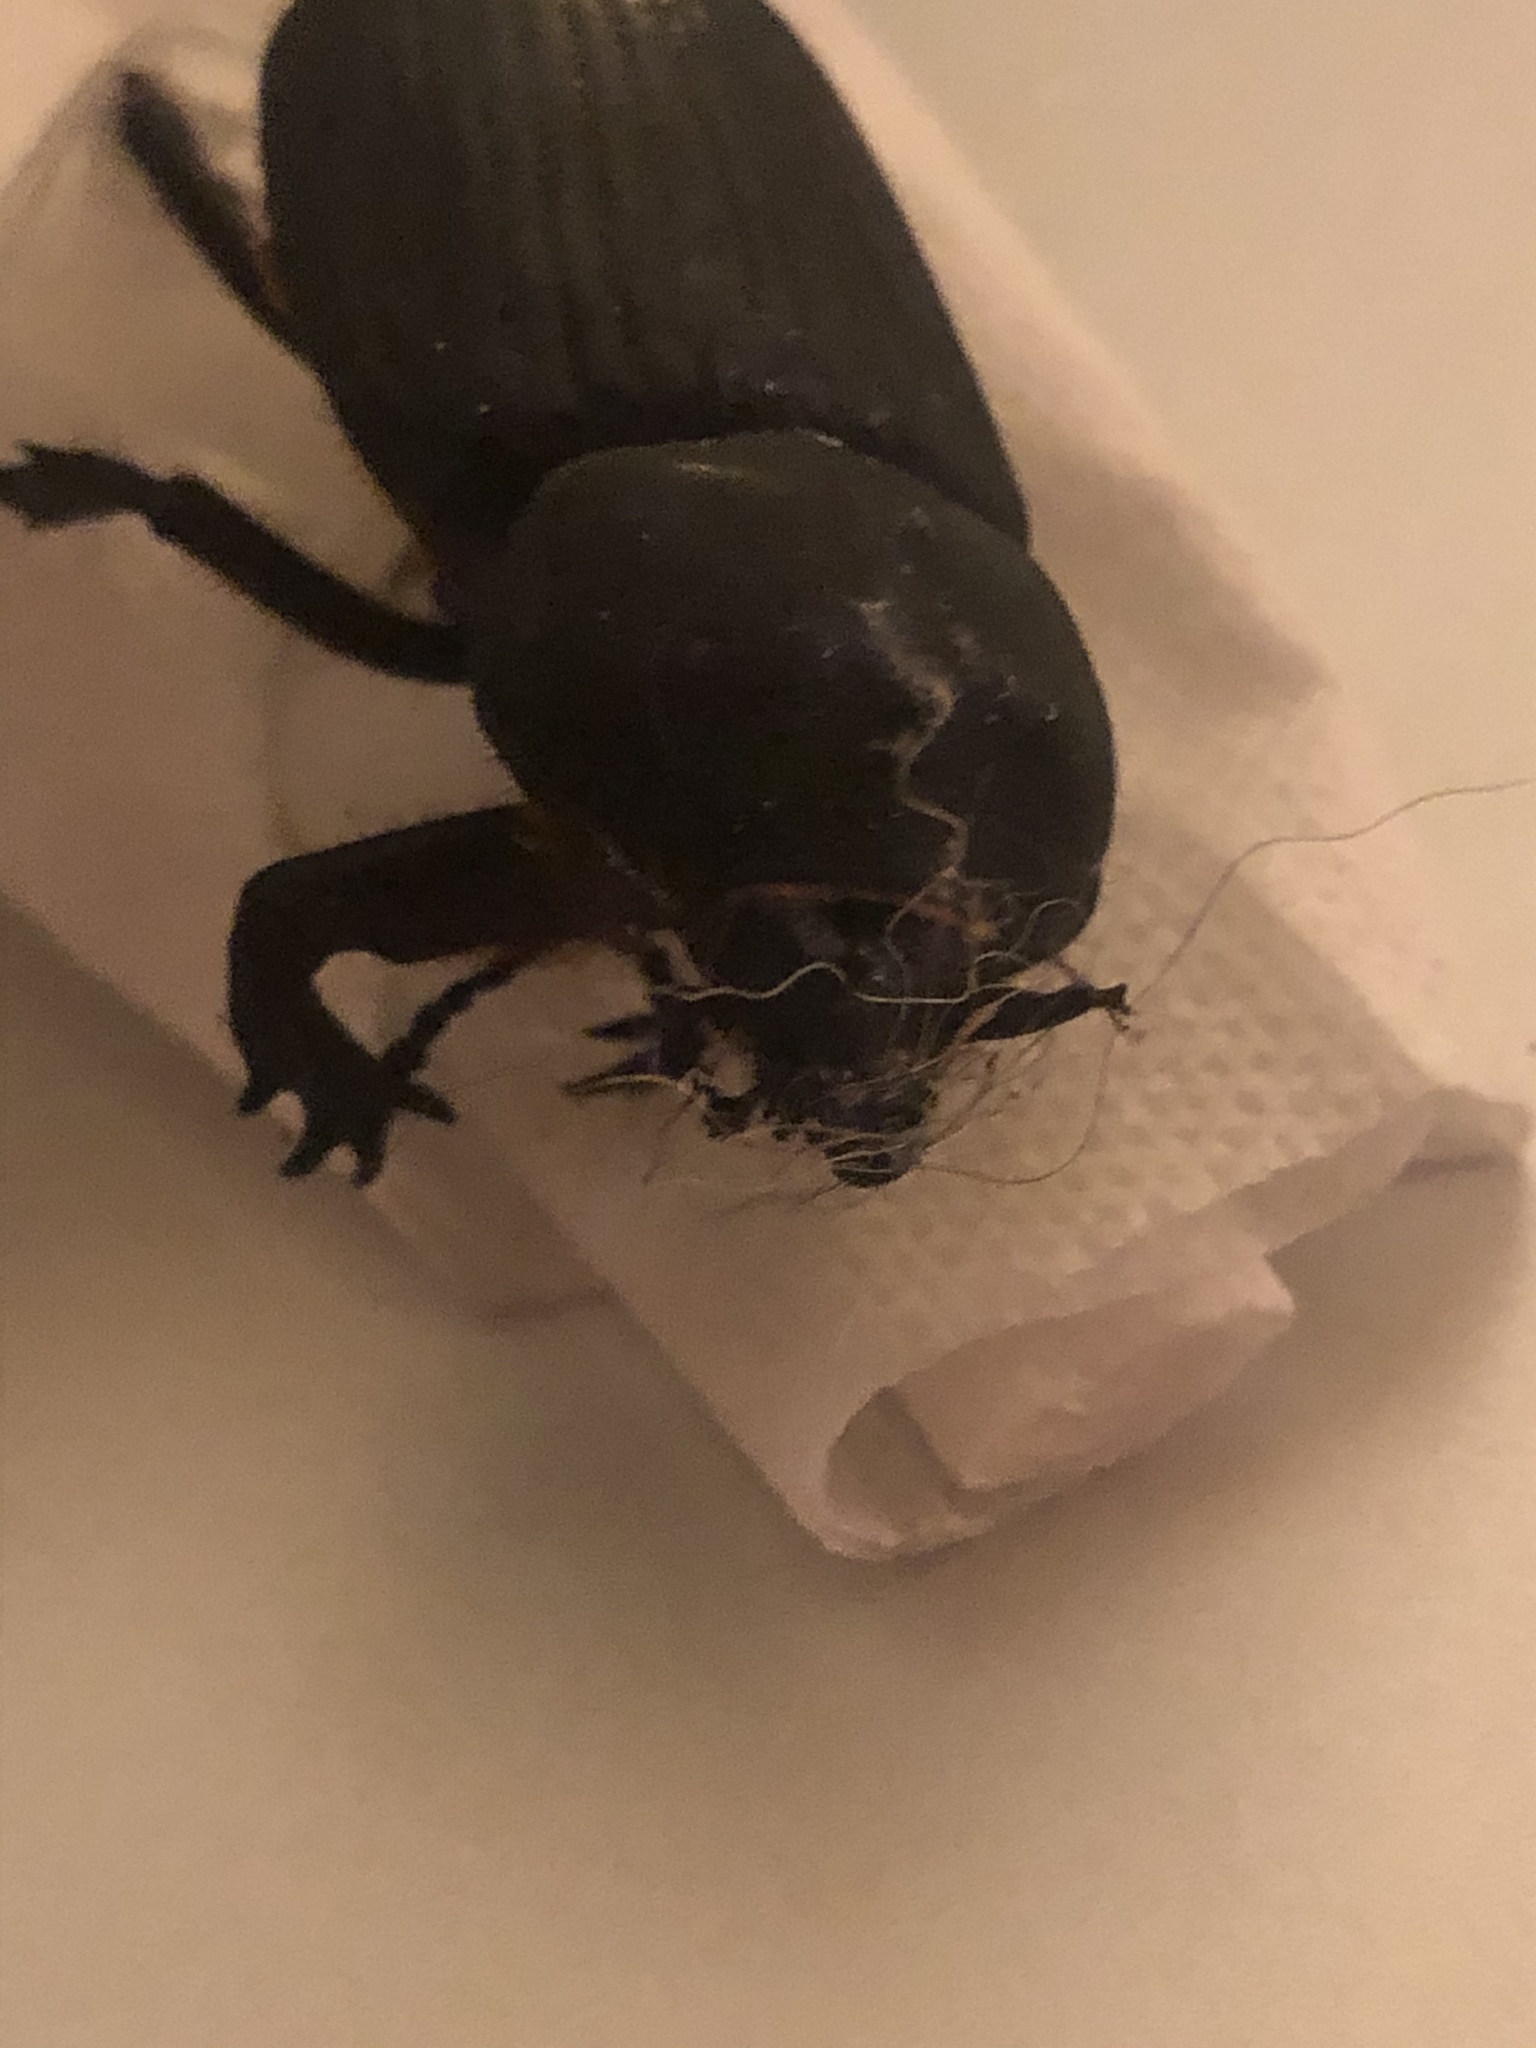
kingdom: Animalia
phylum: Arthropoda
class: Insecta
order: Coleoptera
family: Scarabaeidae
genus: Phileurus
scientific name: Phileurus truncatus
